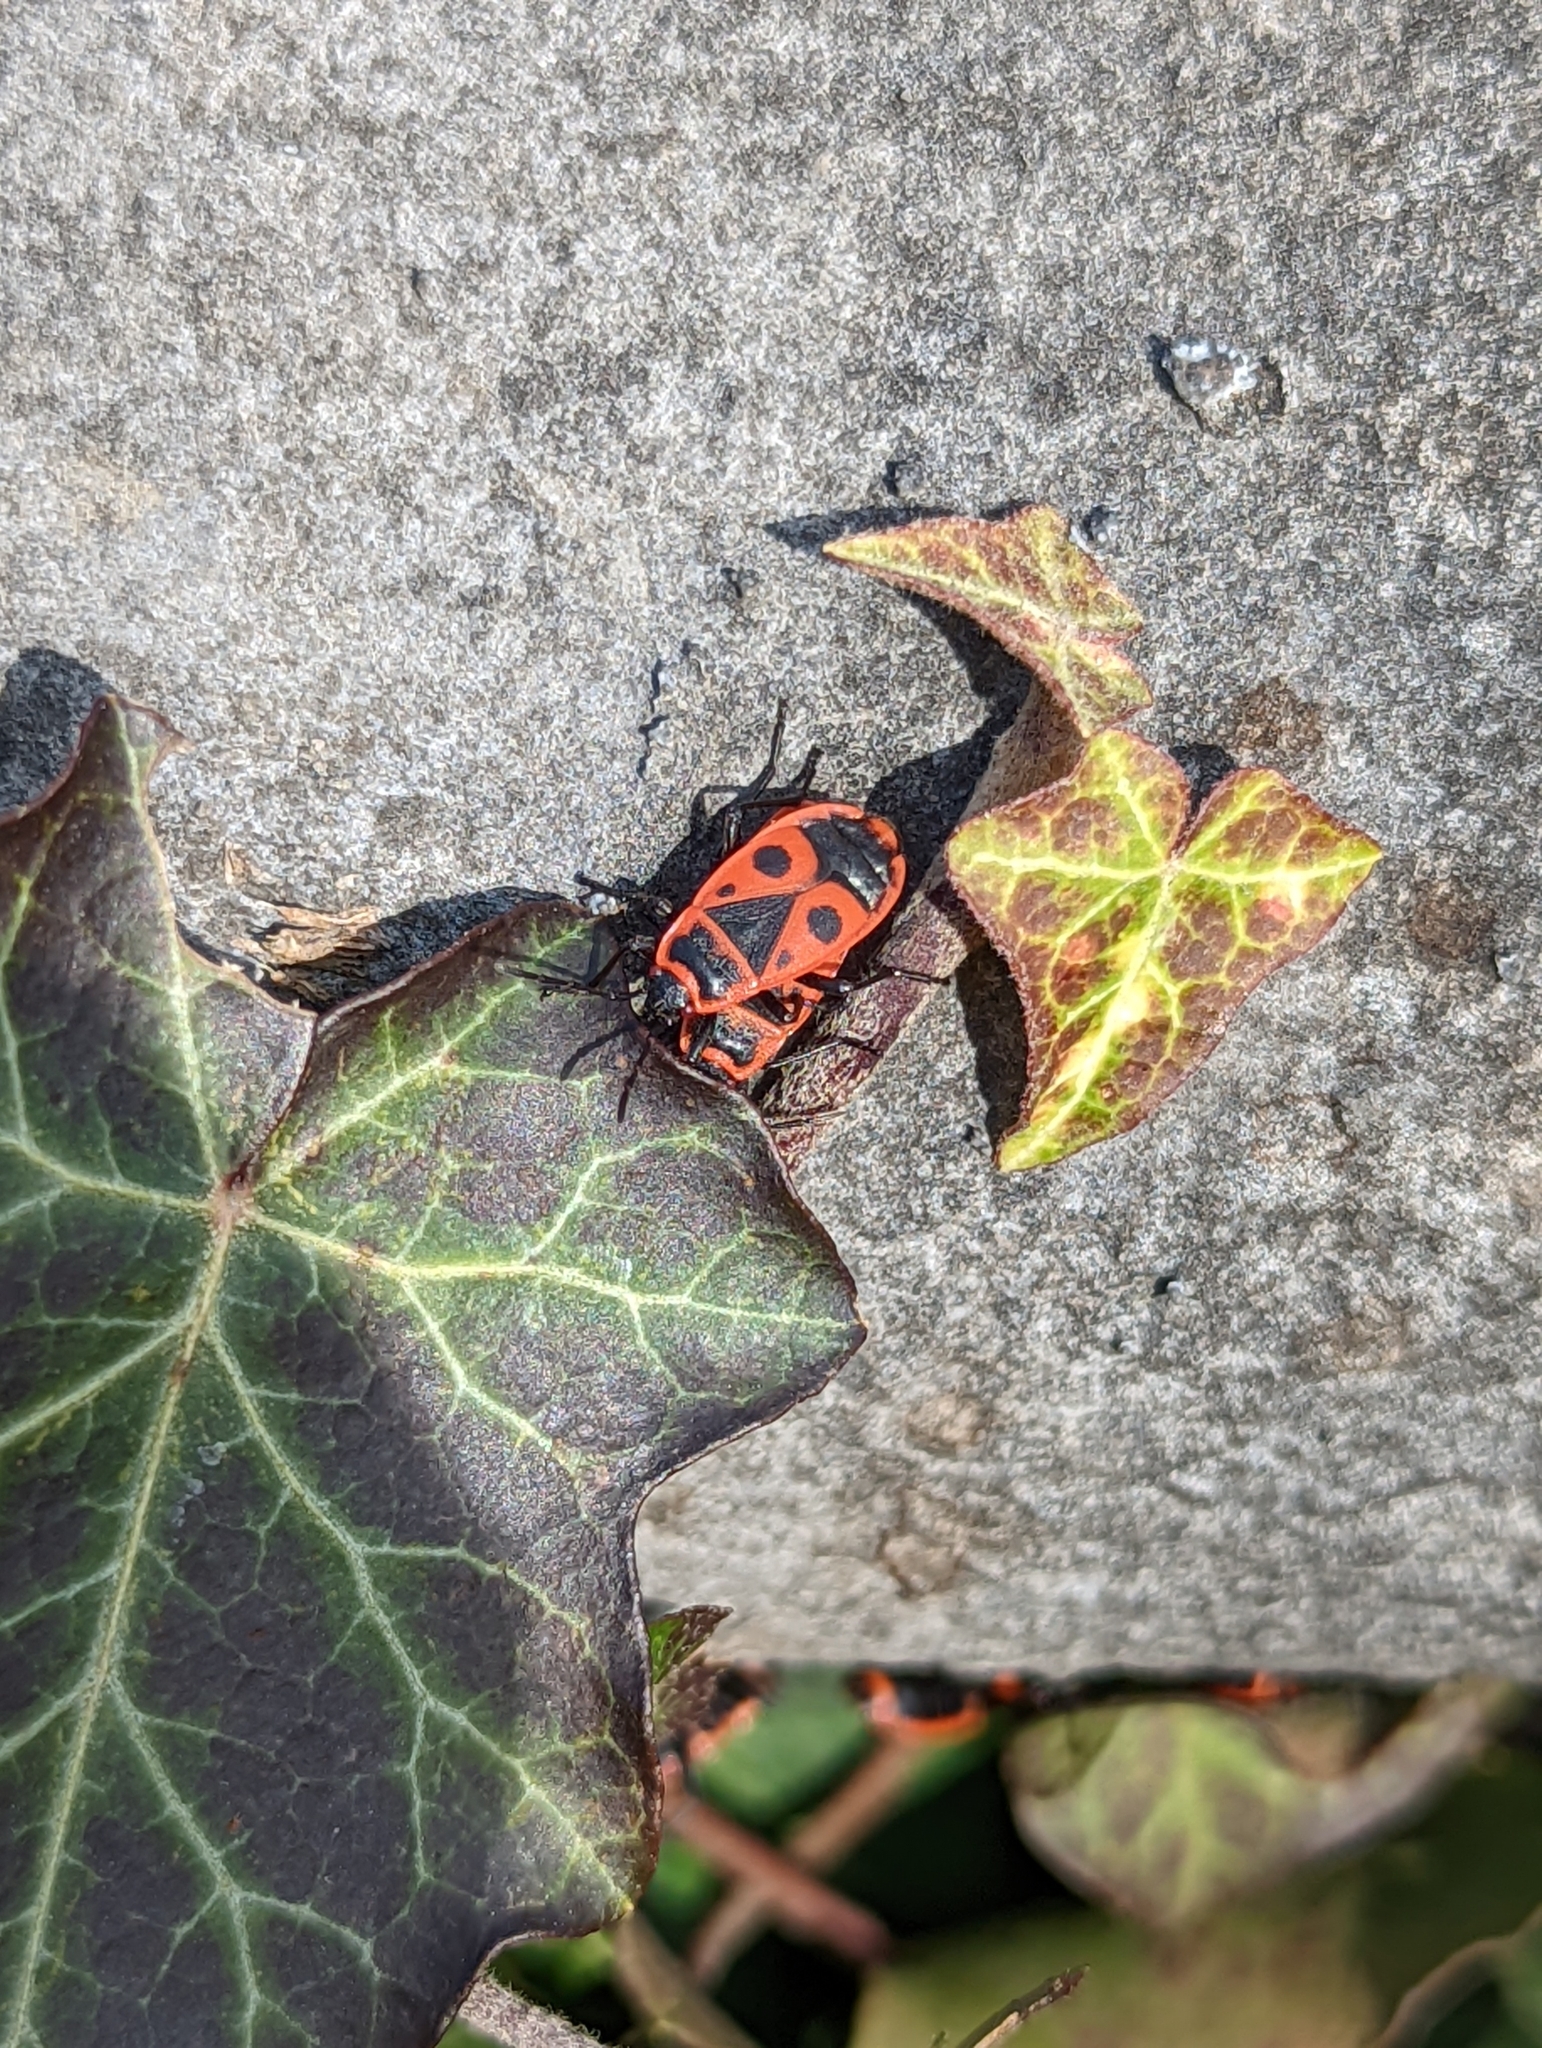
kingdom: Animalia
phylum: Arthropoda
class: Insecta
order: Hemiptera
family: Pyrrhocoridae
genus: Pyrrhocoris
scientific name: Pyrrhocoris apterus
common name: Firebug
